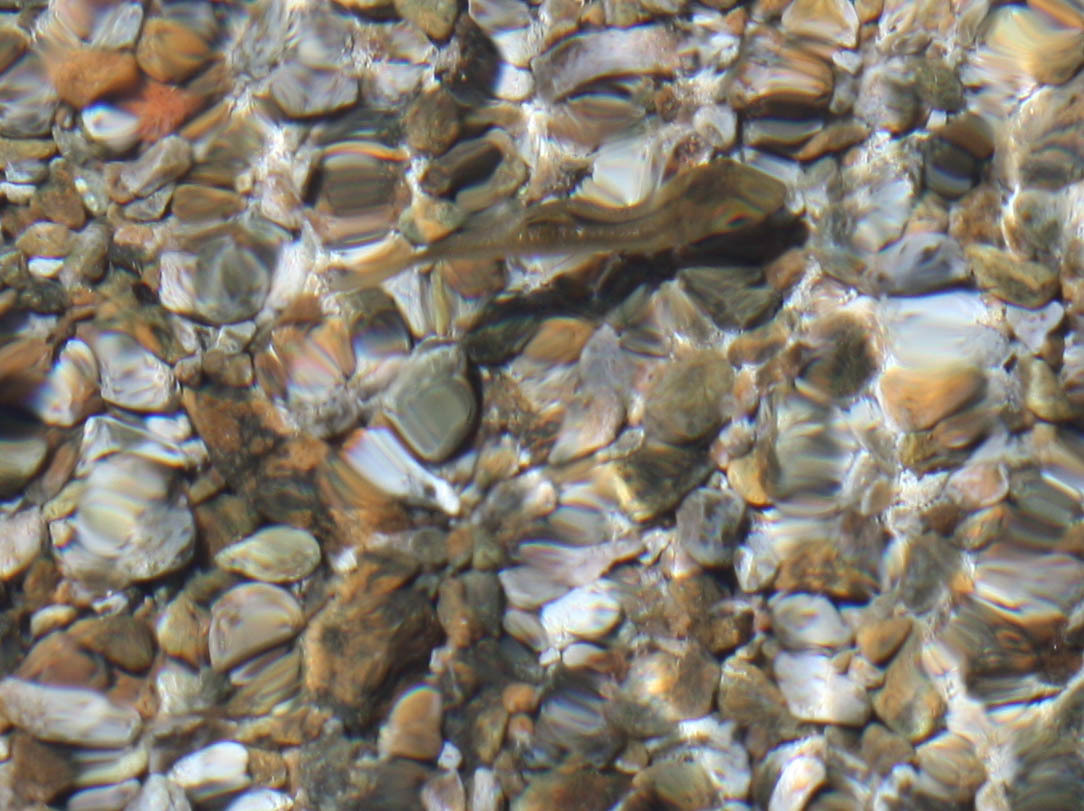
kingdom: Animalia
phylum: Chordata
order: Cypriniformes
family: Cyprinidae
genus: Hesperoleucus
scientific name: Hesperoleucus symmetricus
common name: California roach
